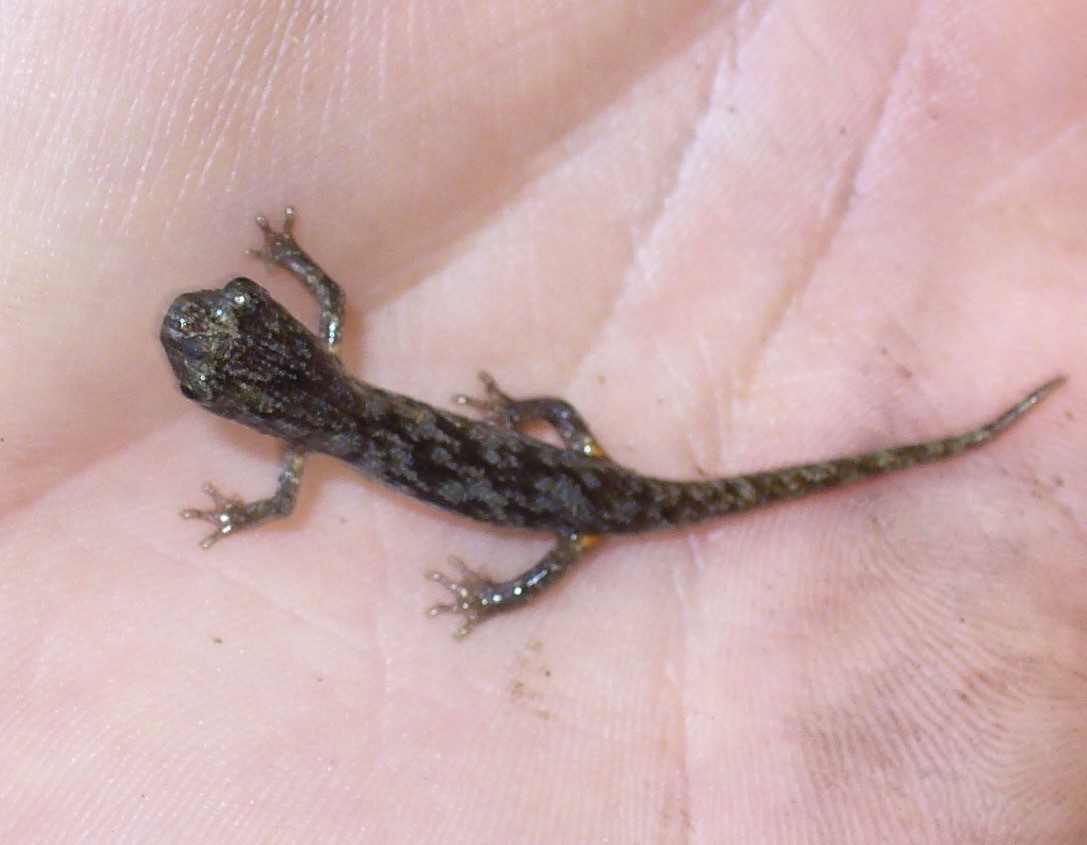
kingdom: Animalia
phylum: Chordata
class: Amphibia
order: Caudata
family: Plethodontidae
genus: Aneides
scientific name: Aneides lugubris
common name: Arboreal salamander
